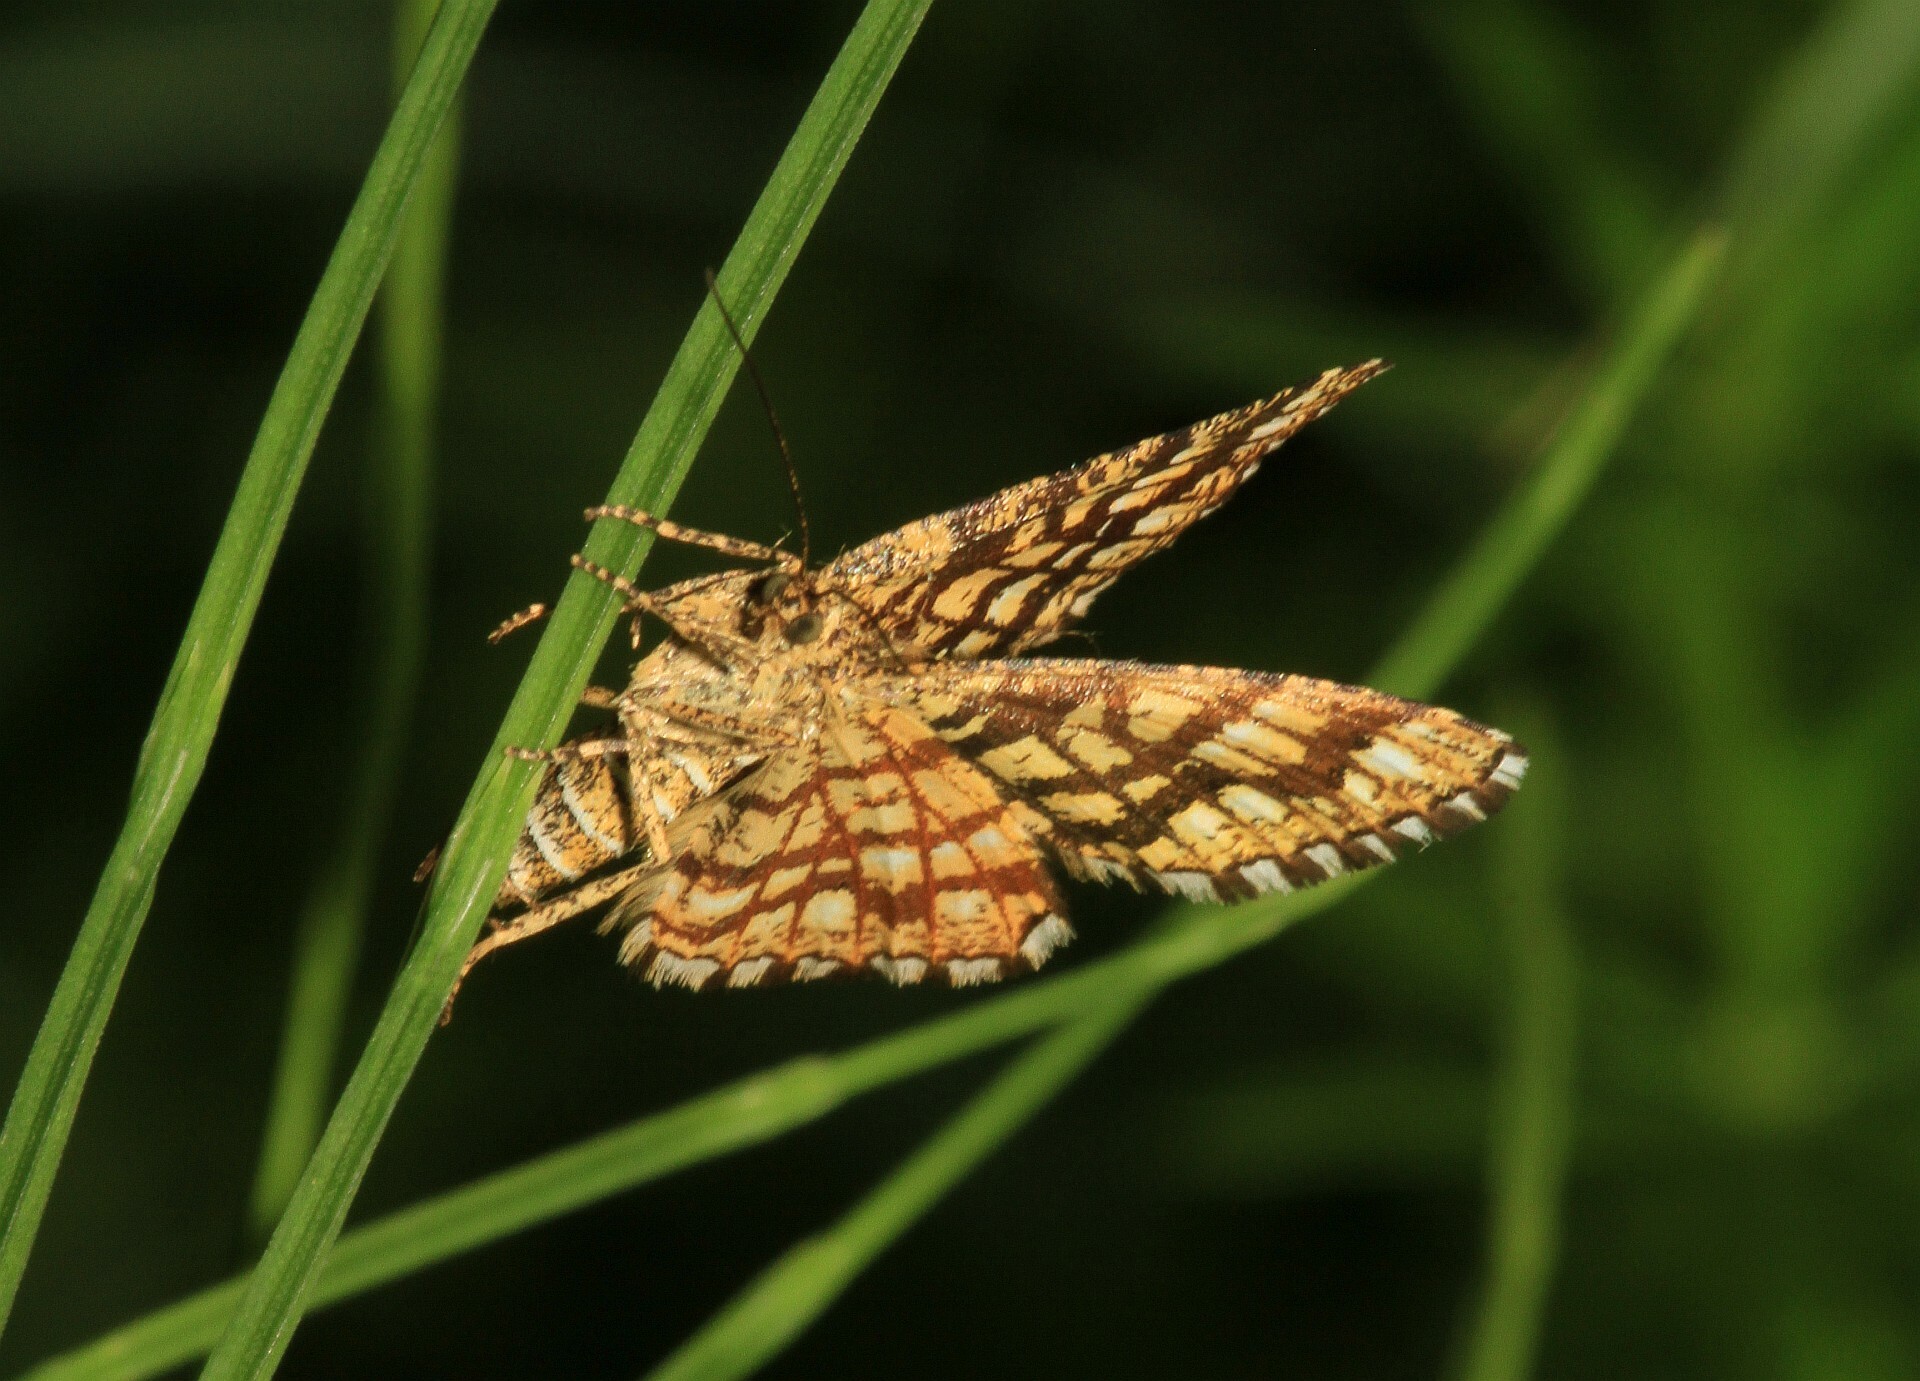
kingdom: Animalia
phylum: Arthropoda
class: Insecta
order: Lepidoptera
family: Geometridae
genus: Chiasmia
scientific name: Chiasmia clathrata
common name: Latticed heath
